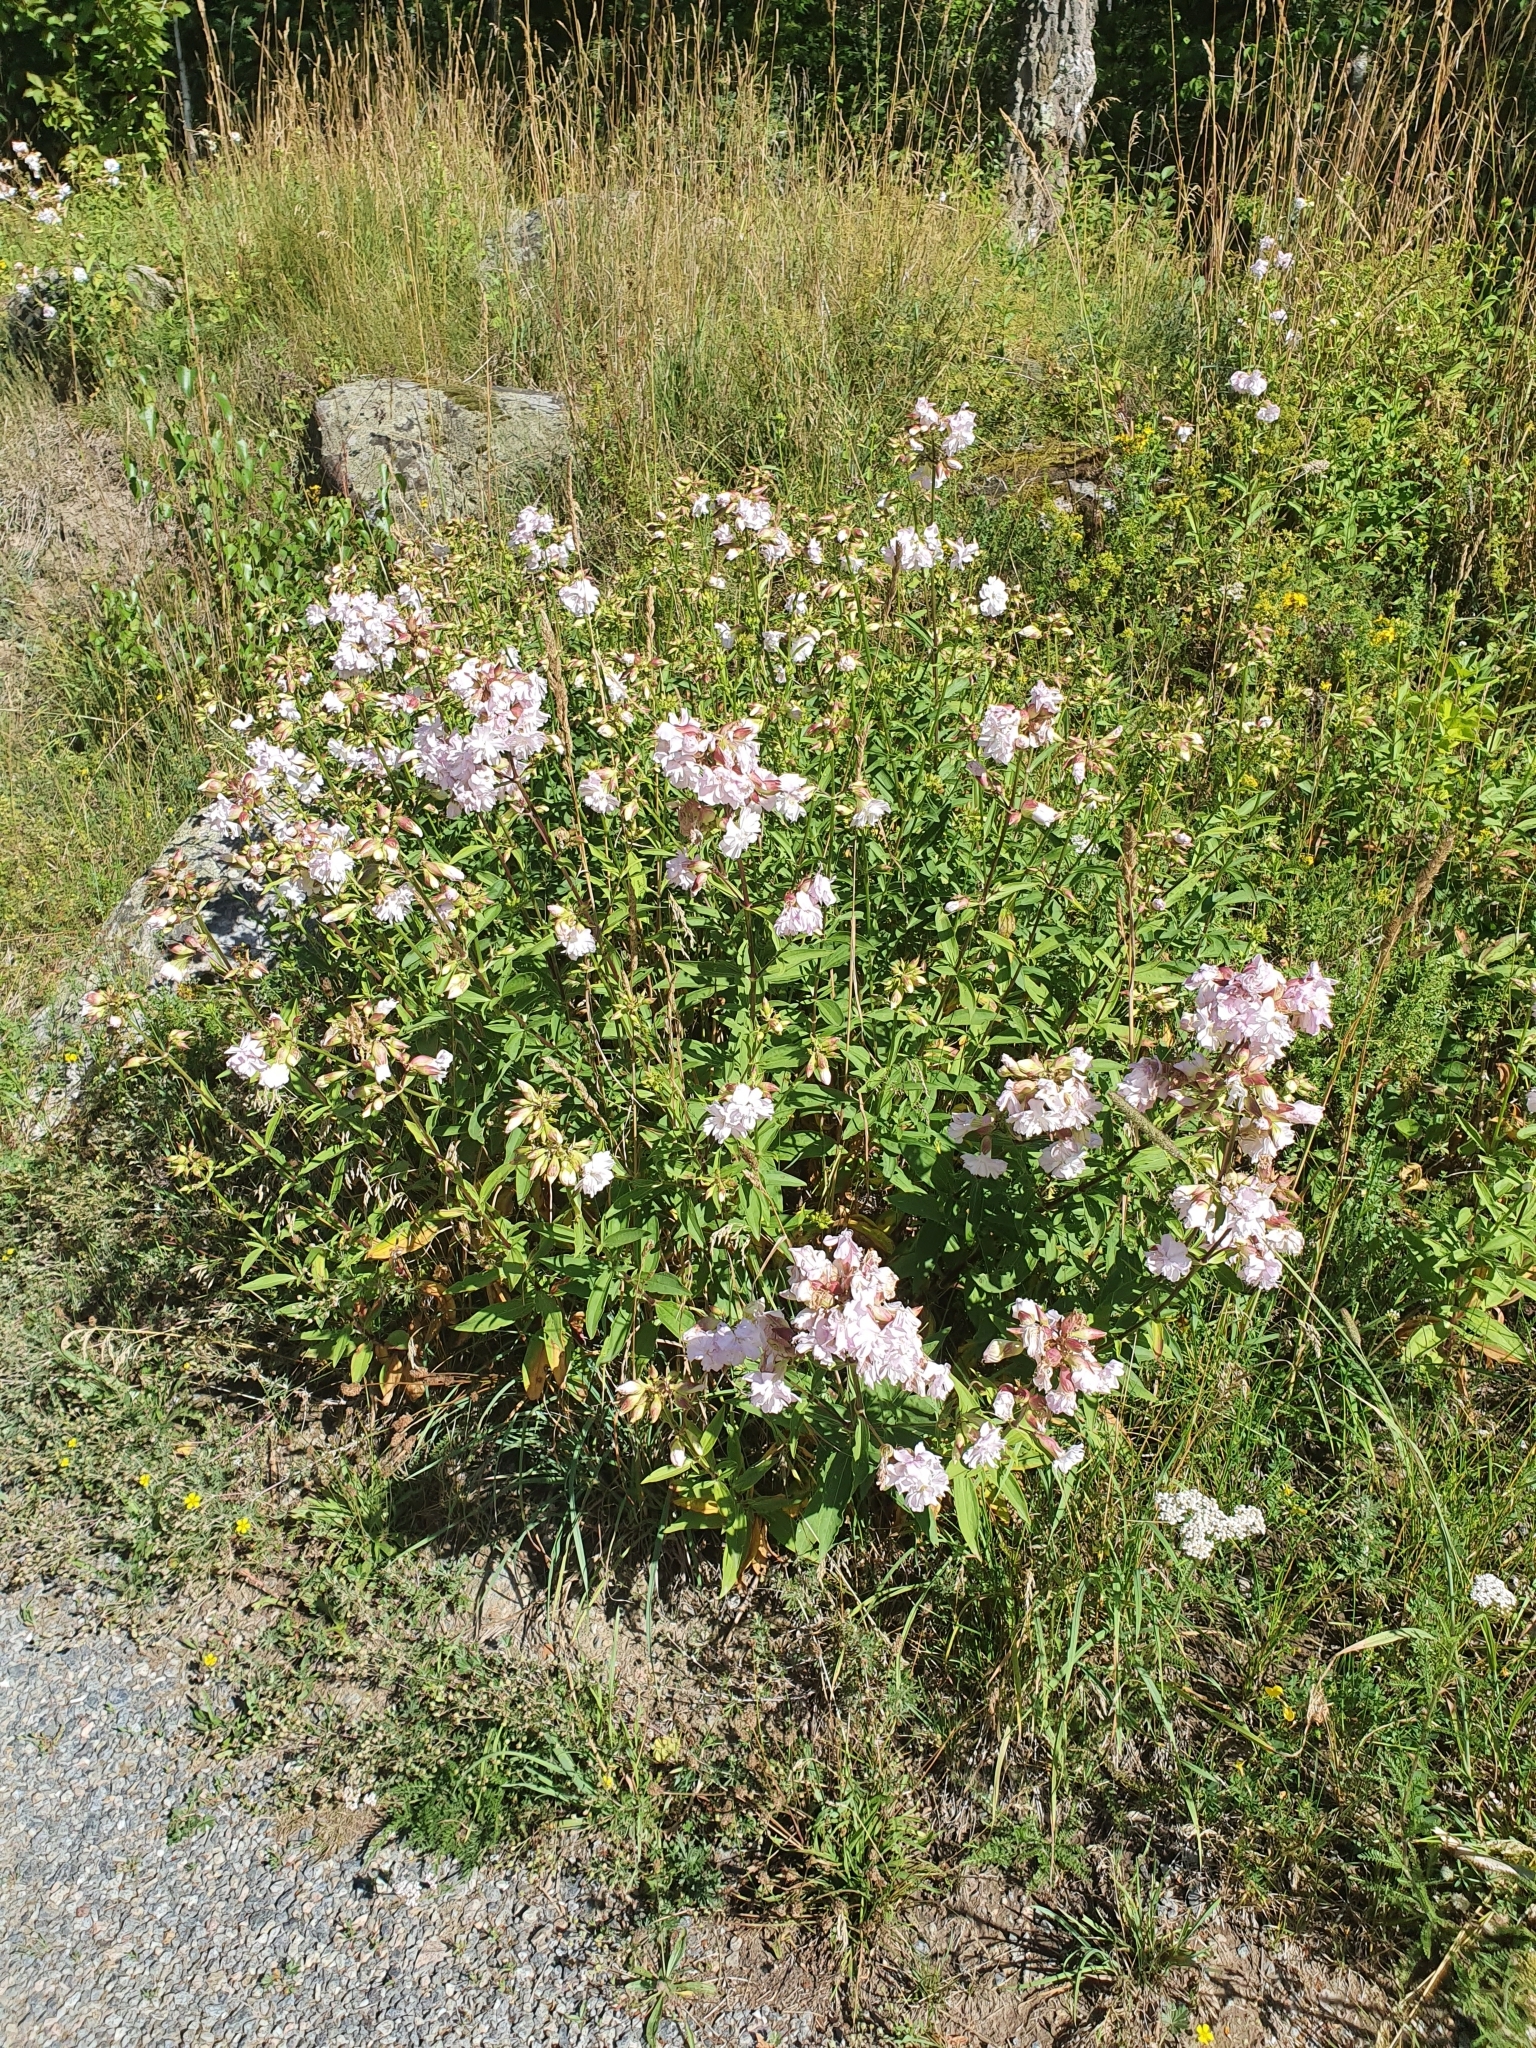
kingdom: Plantae
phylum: Tracheophyta
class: Magnoliopsida
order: Caryophyllales
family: Caryophyllaceae
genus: Saponaria
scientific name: Saponaria officinalis
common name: Soapwort
